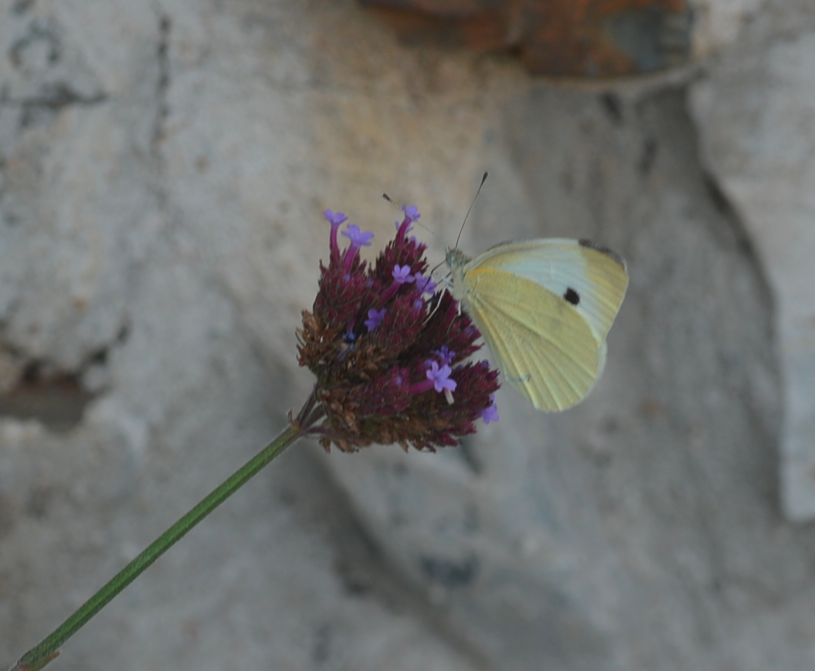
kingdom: Animalia
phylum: Arthropoda
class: Insecta
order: Lepidoptera
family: Pieridae
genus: Pieris
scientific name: Pieris rapae
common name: Small white
